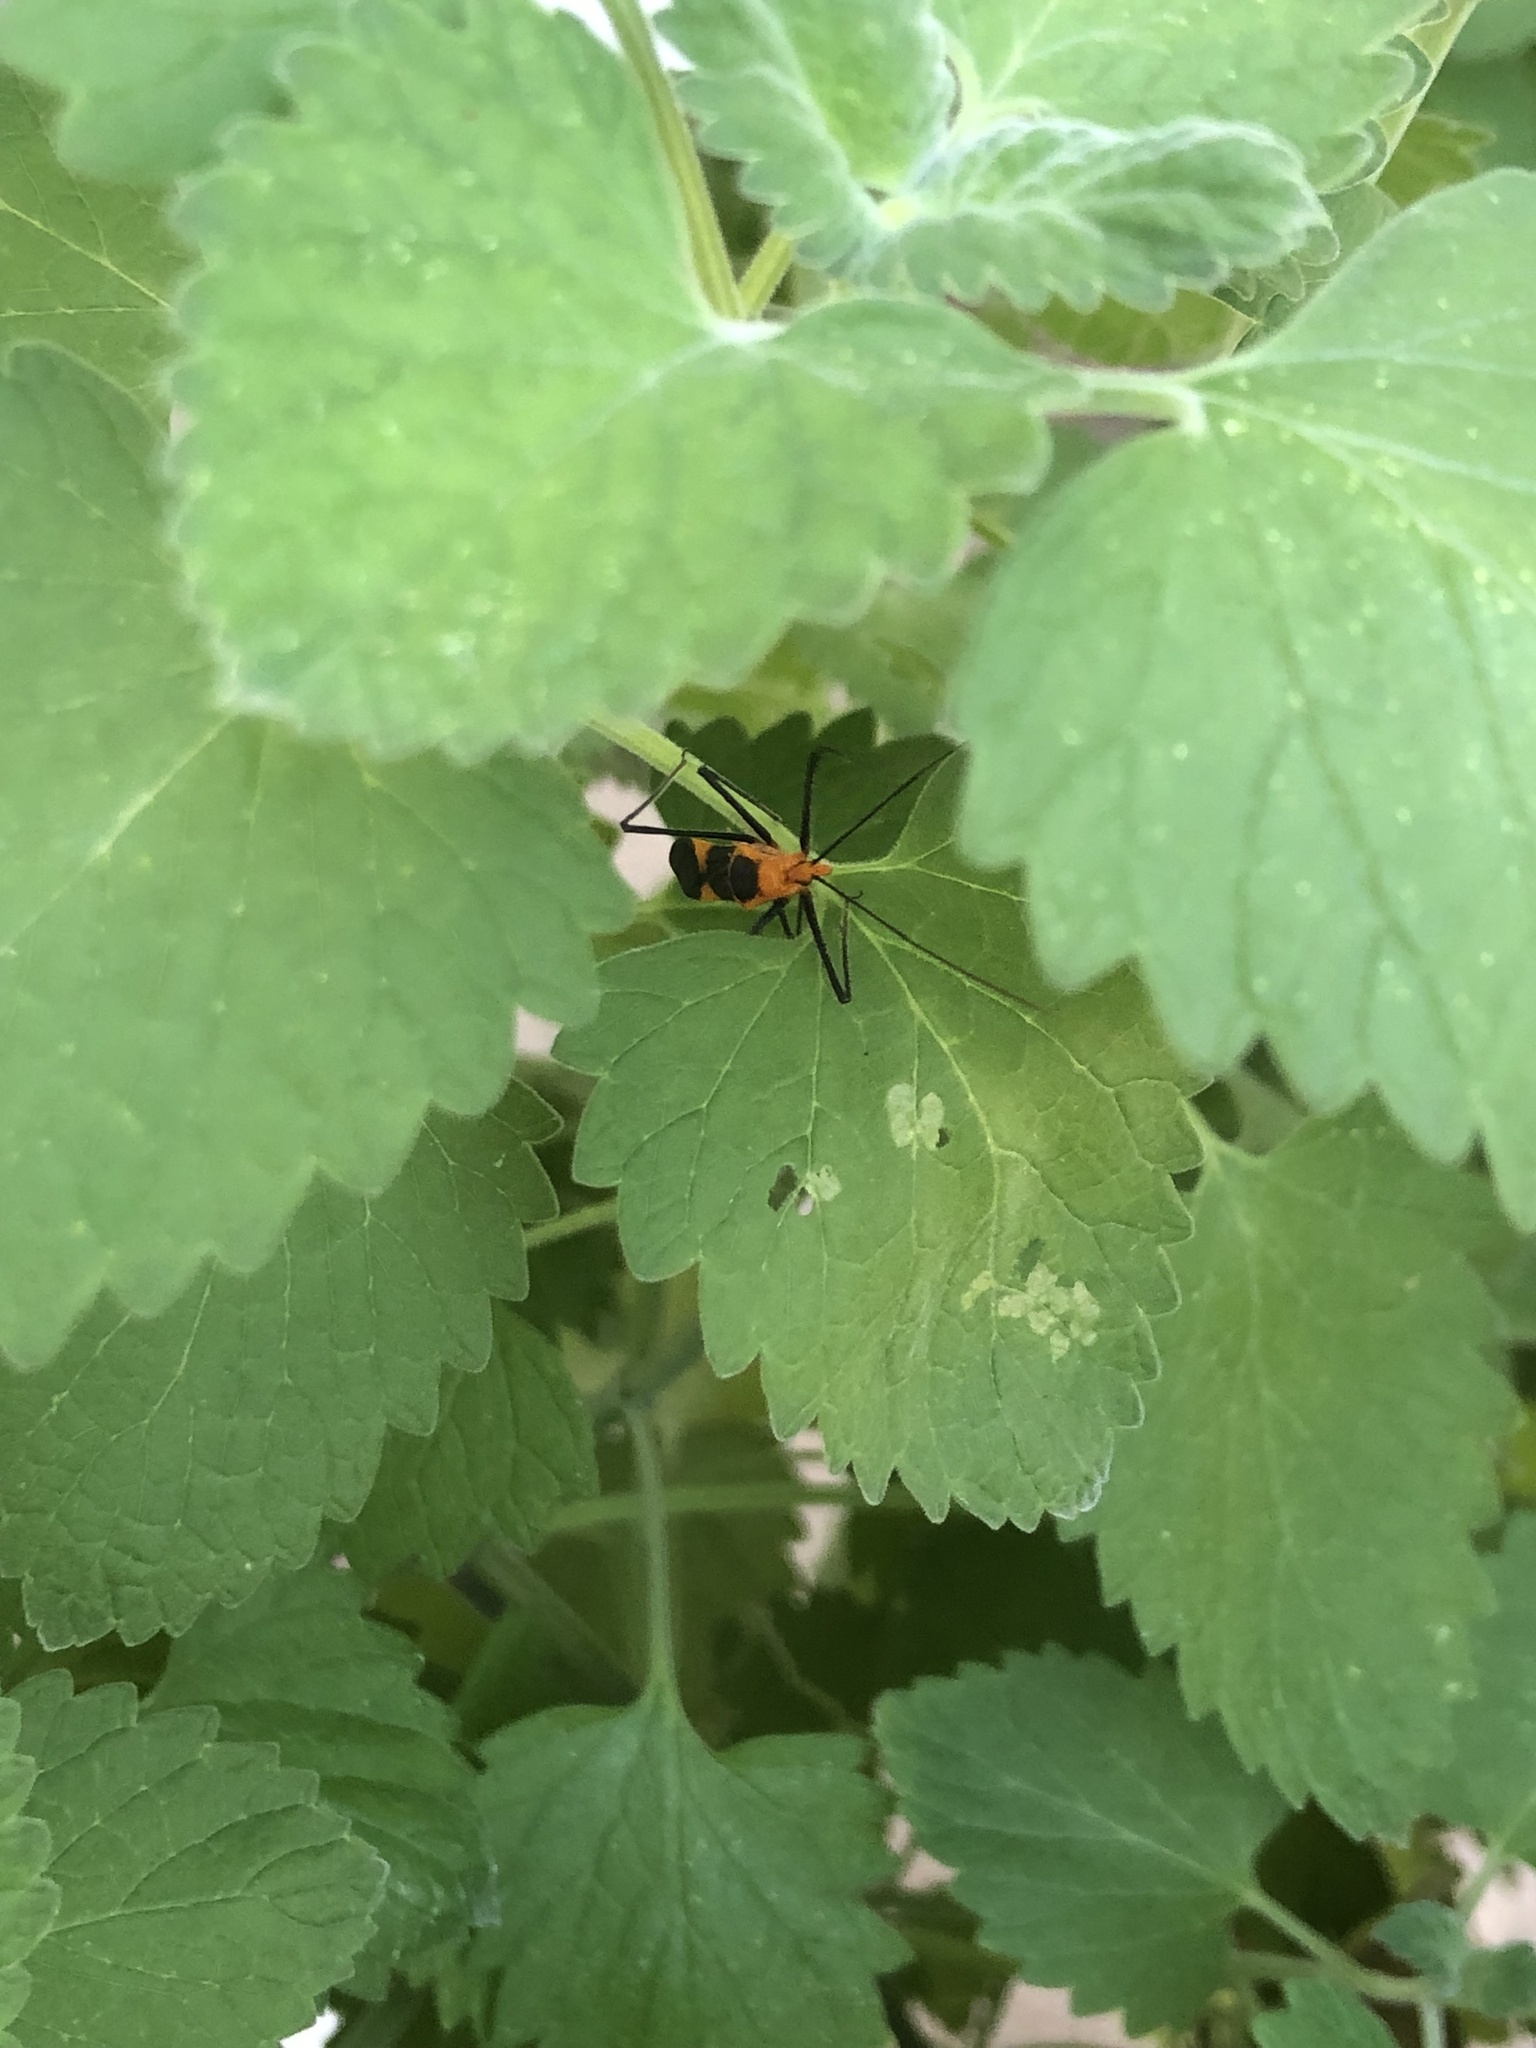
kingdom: Animalia
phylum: Arthropoda
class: Insecta
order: Hemiptera
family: Reduviidae
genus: Zelus
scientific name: Zelus longipes
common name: Milkweed assassin bug
